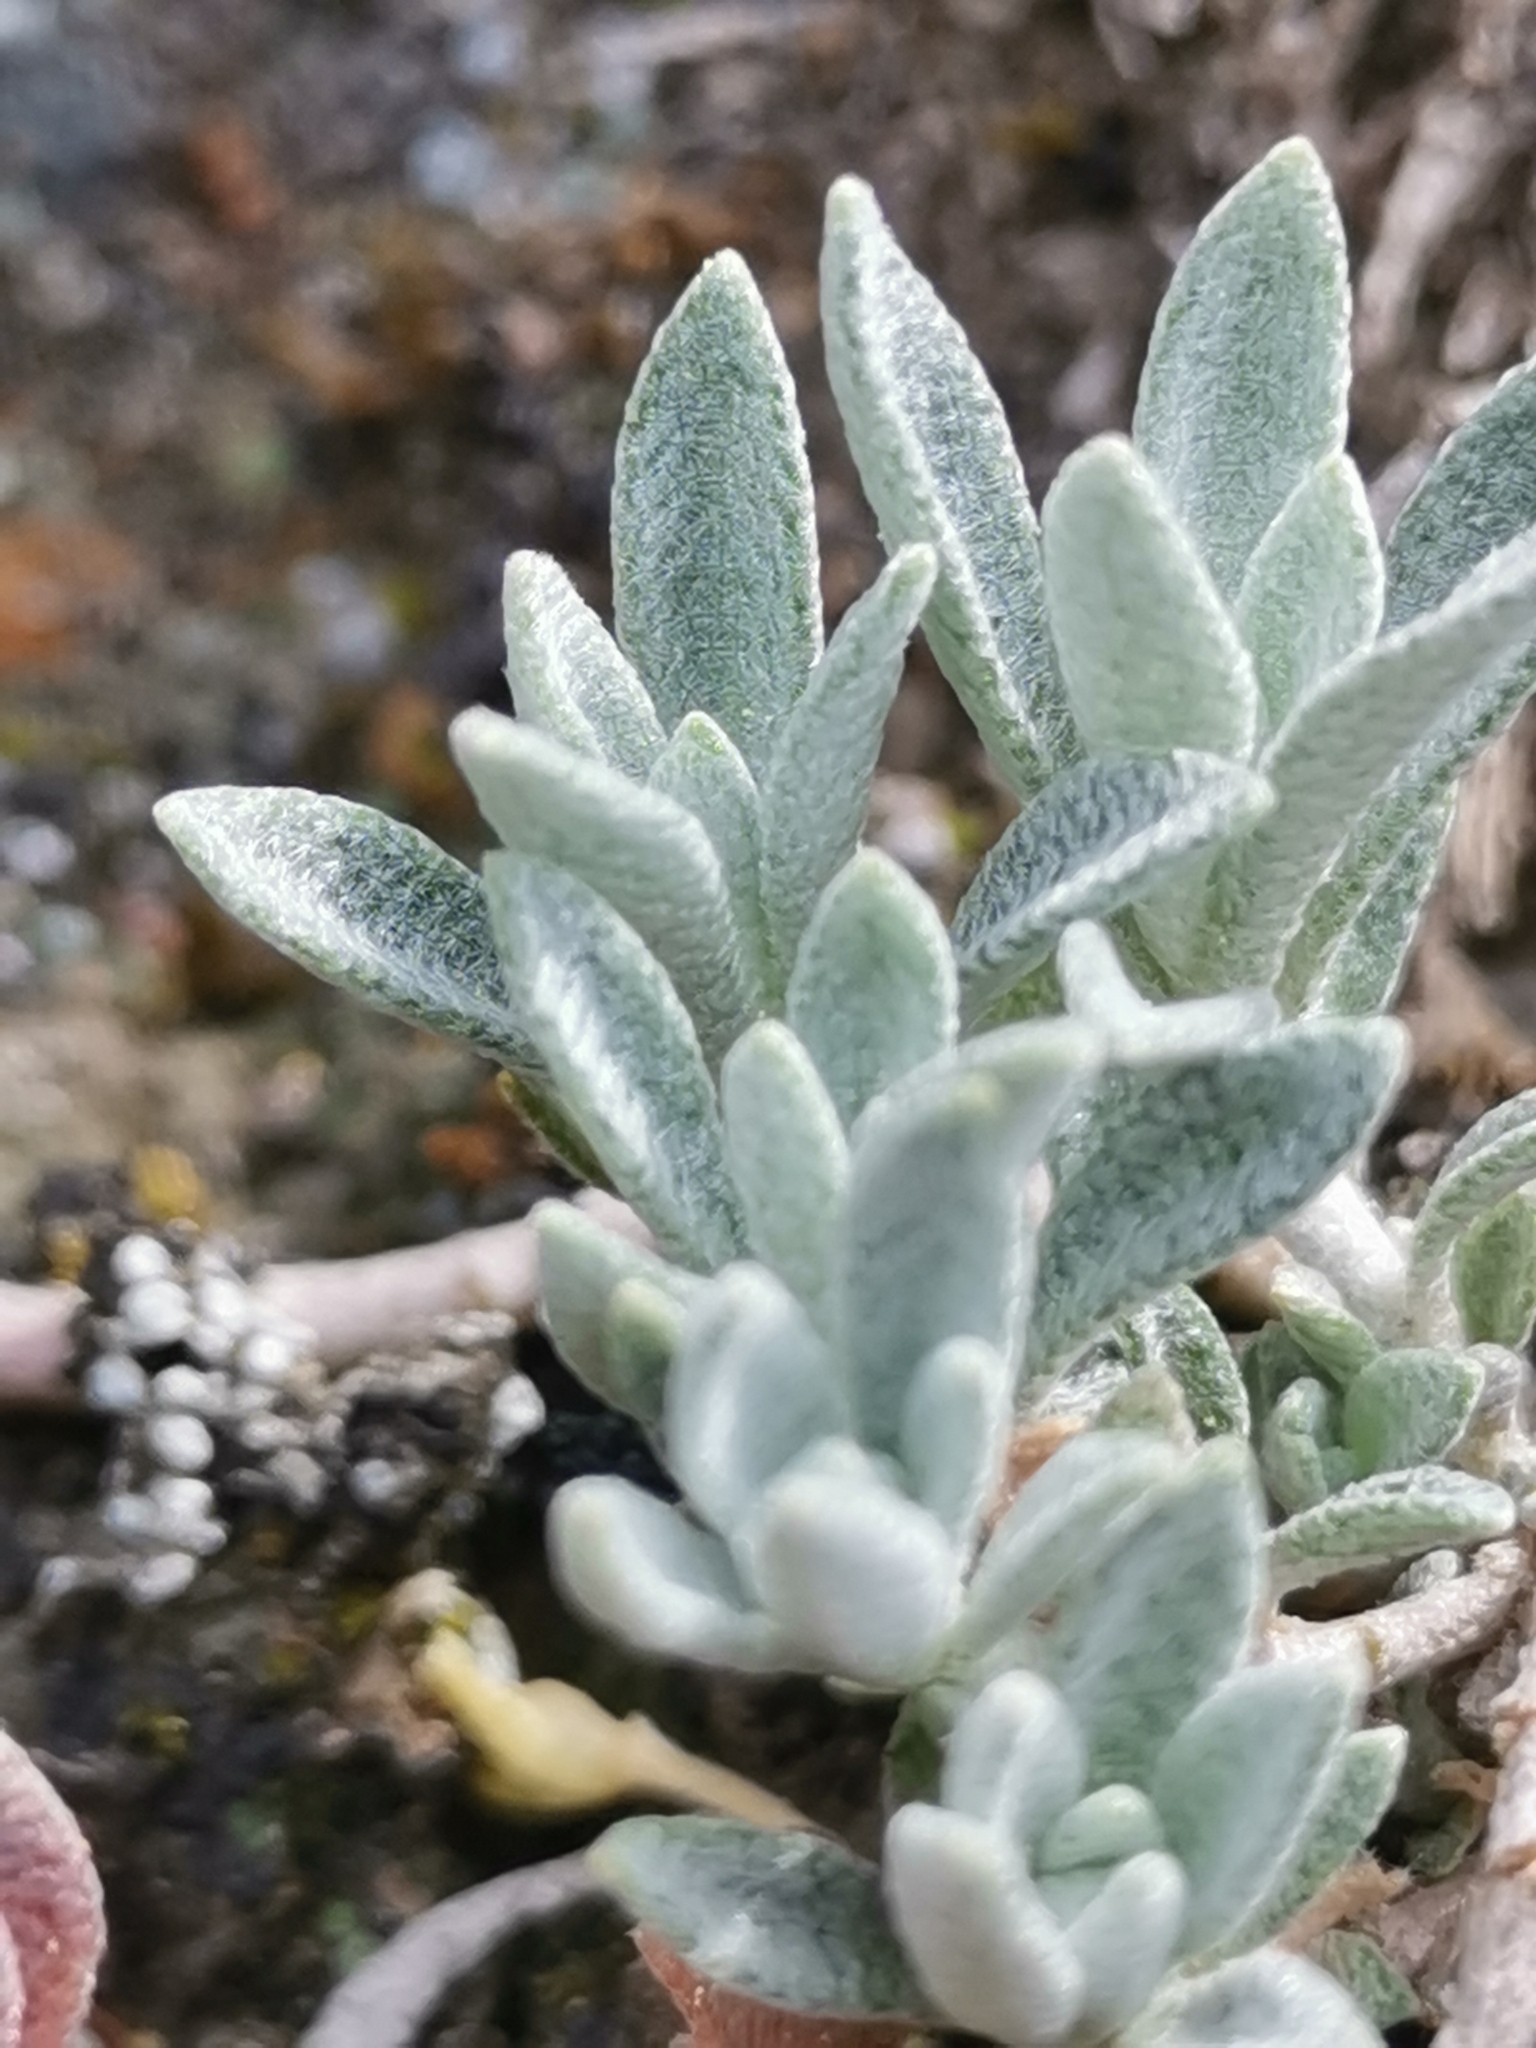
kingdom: Plantae
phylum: Tracheophyta
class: Magnoliopsida
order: Brassicales
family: Brassicaceae
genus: Alyssum
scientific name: Alyssum gmelinii
